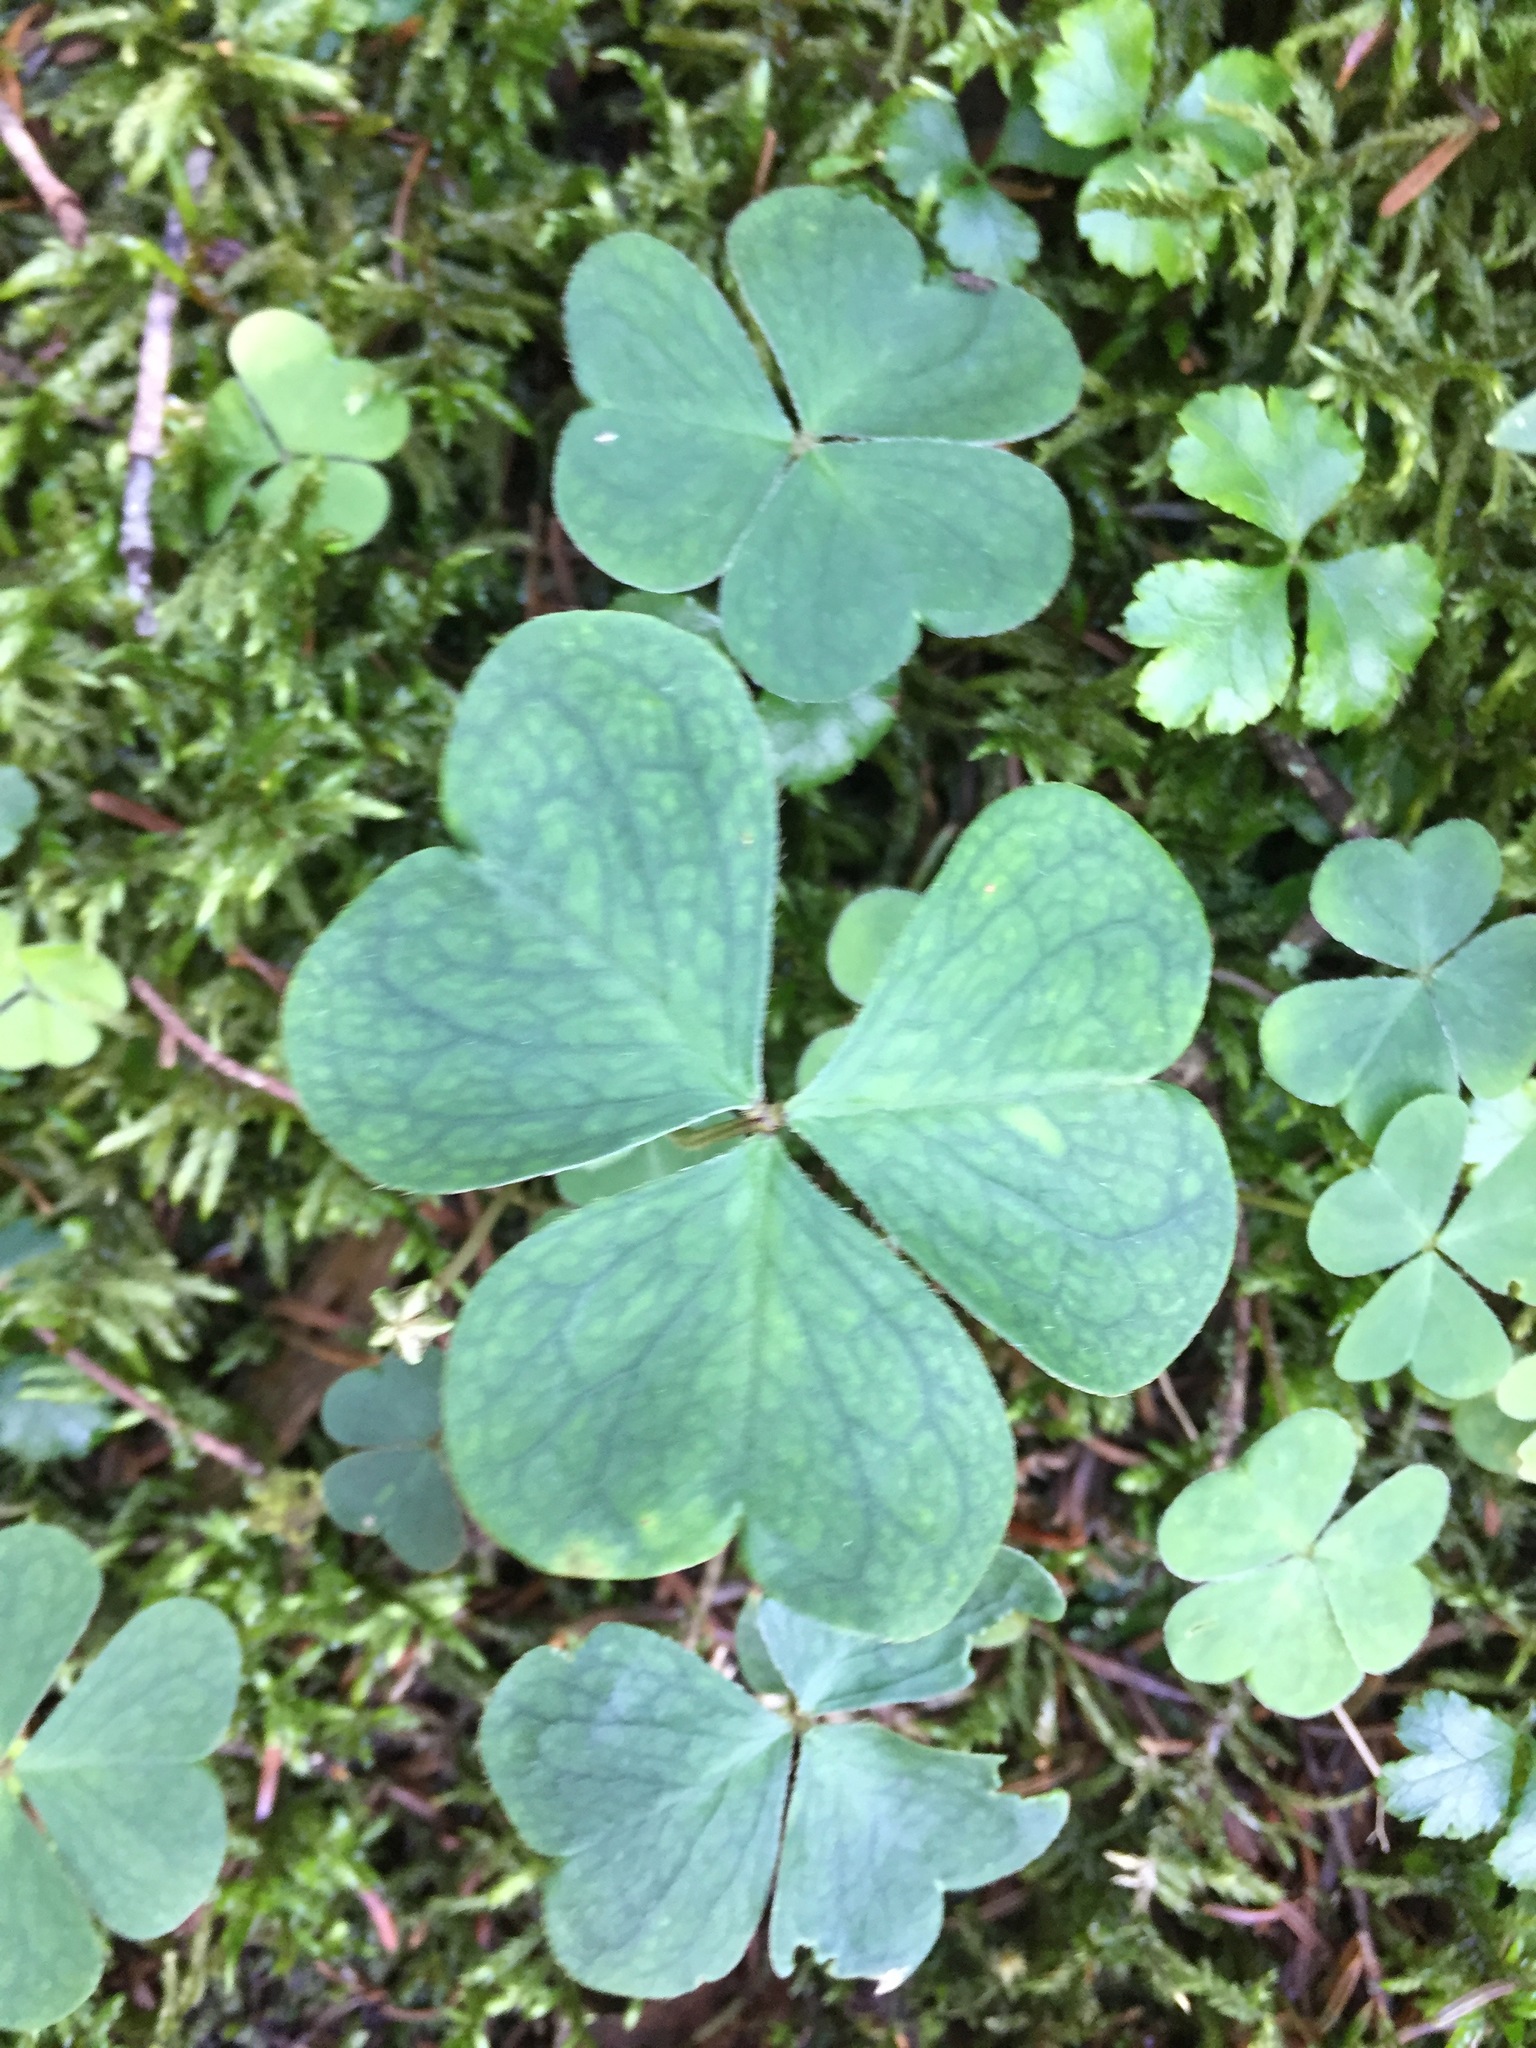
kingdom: Plantae
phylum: Tracheophyta
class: Magnoliopsida
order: Oxalidales
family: Oxalidaceae
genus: Oxalis
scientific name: Oxalis montana
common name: American wood-sorrel
